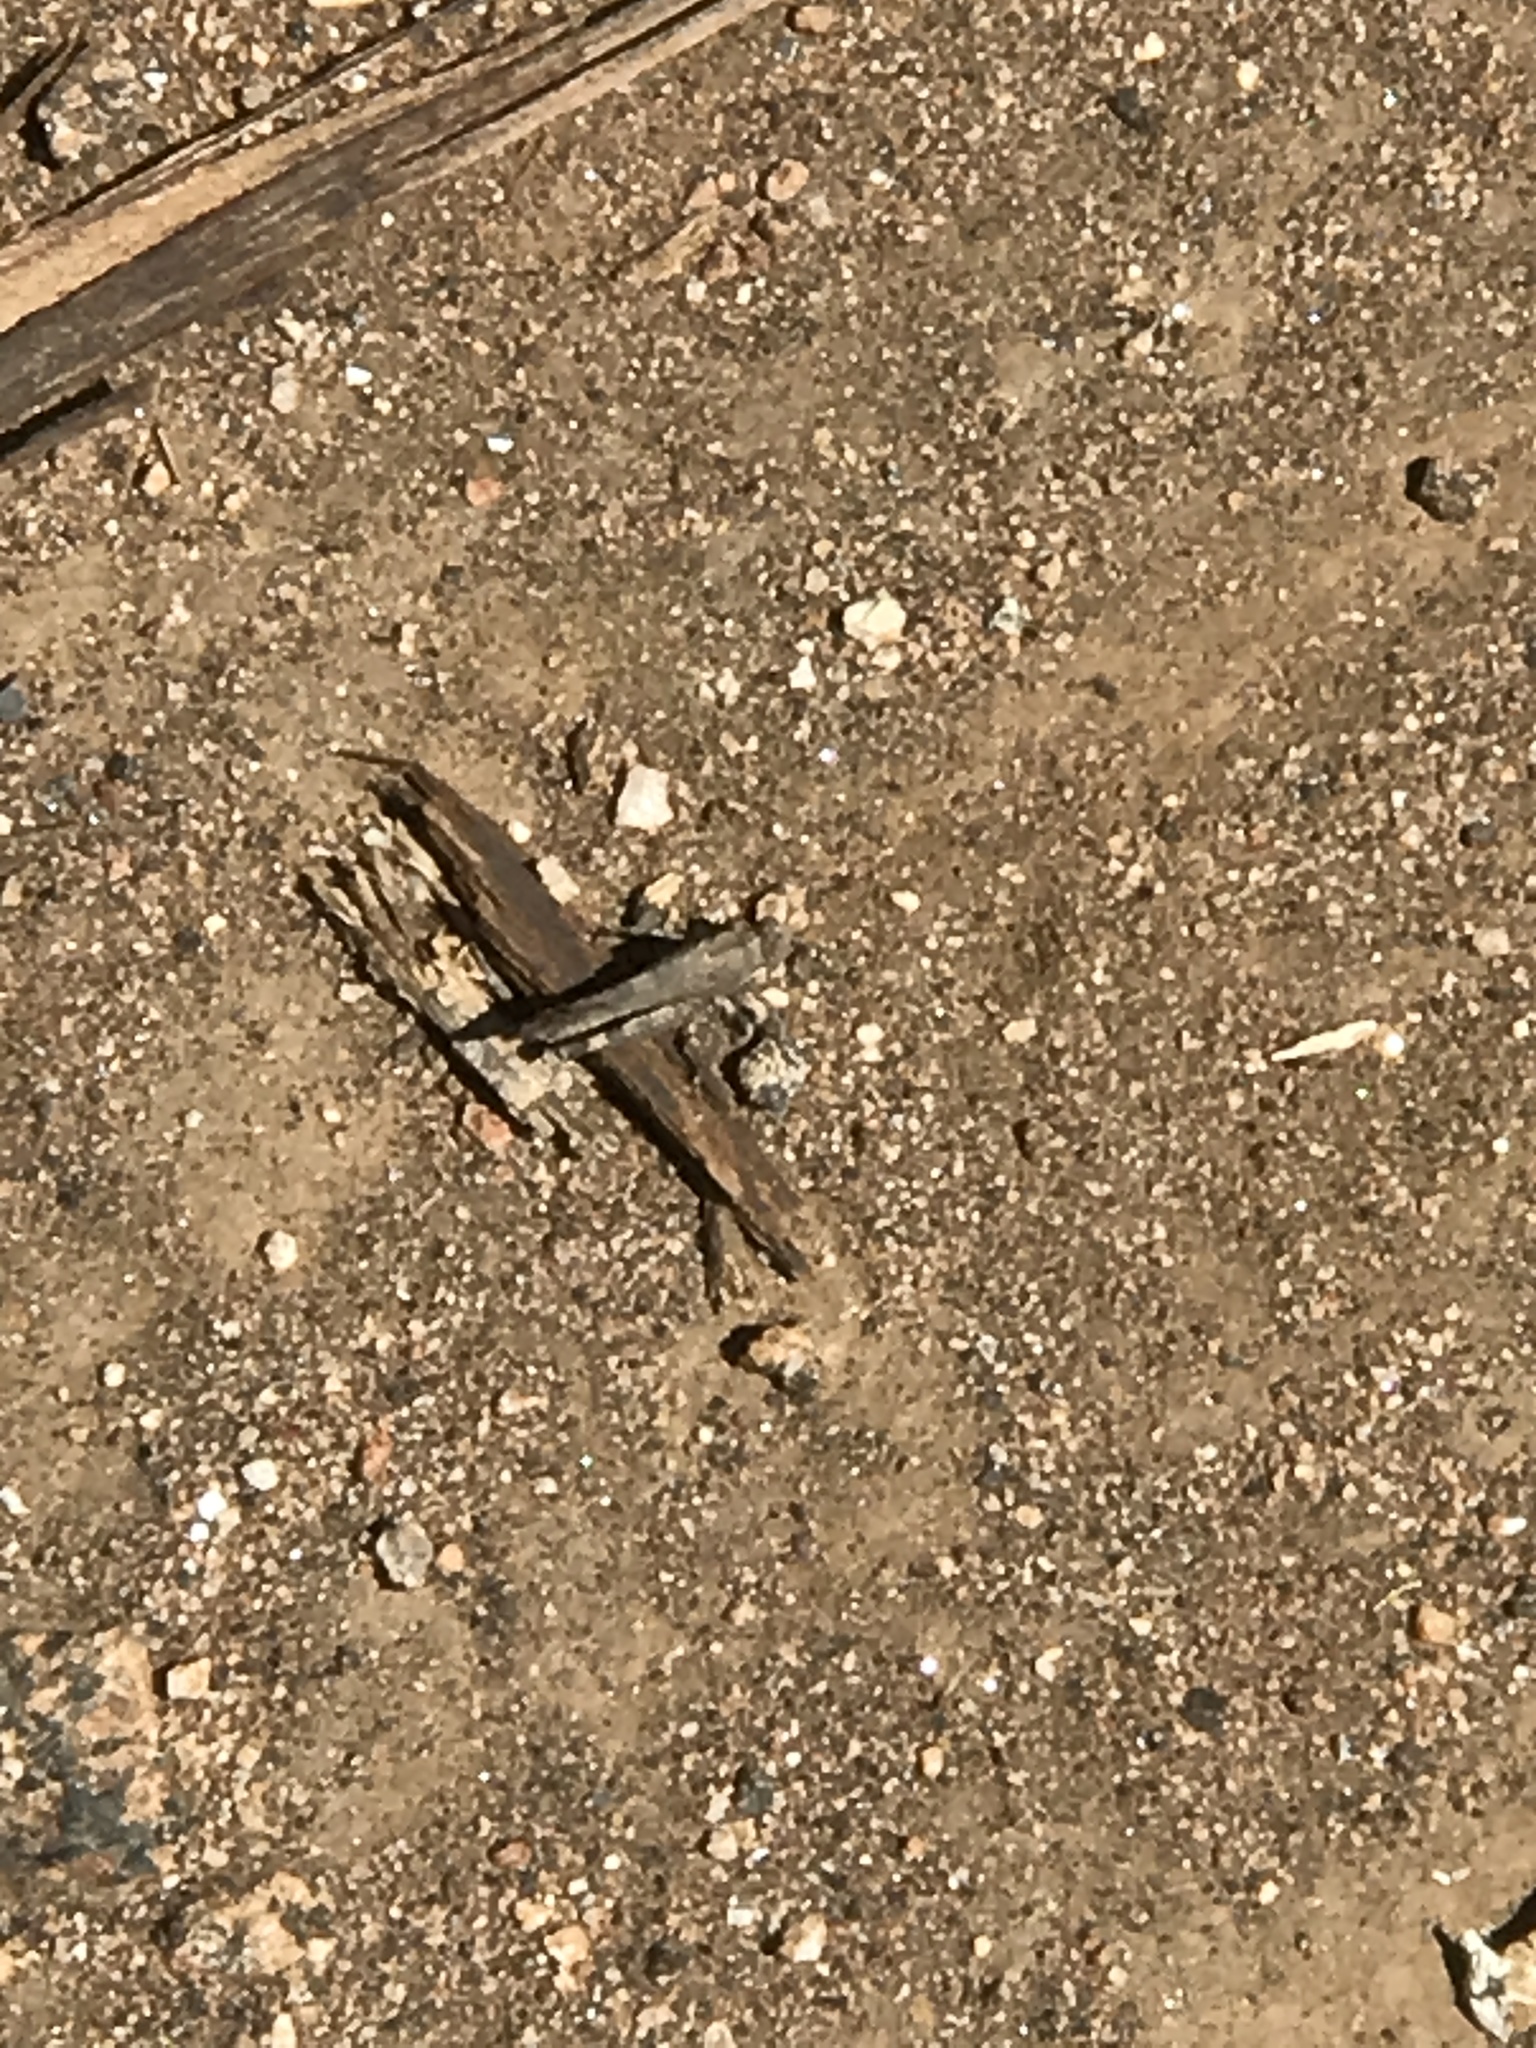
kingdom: Animalia
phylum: Arthropoda
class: Insecta
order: Orthoptera
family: Acrididae
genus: Lactista
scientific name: Lactista gibbosus
